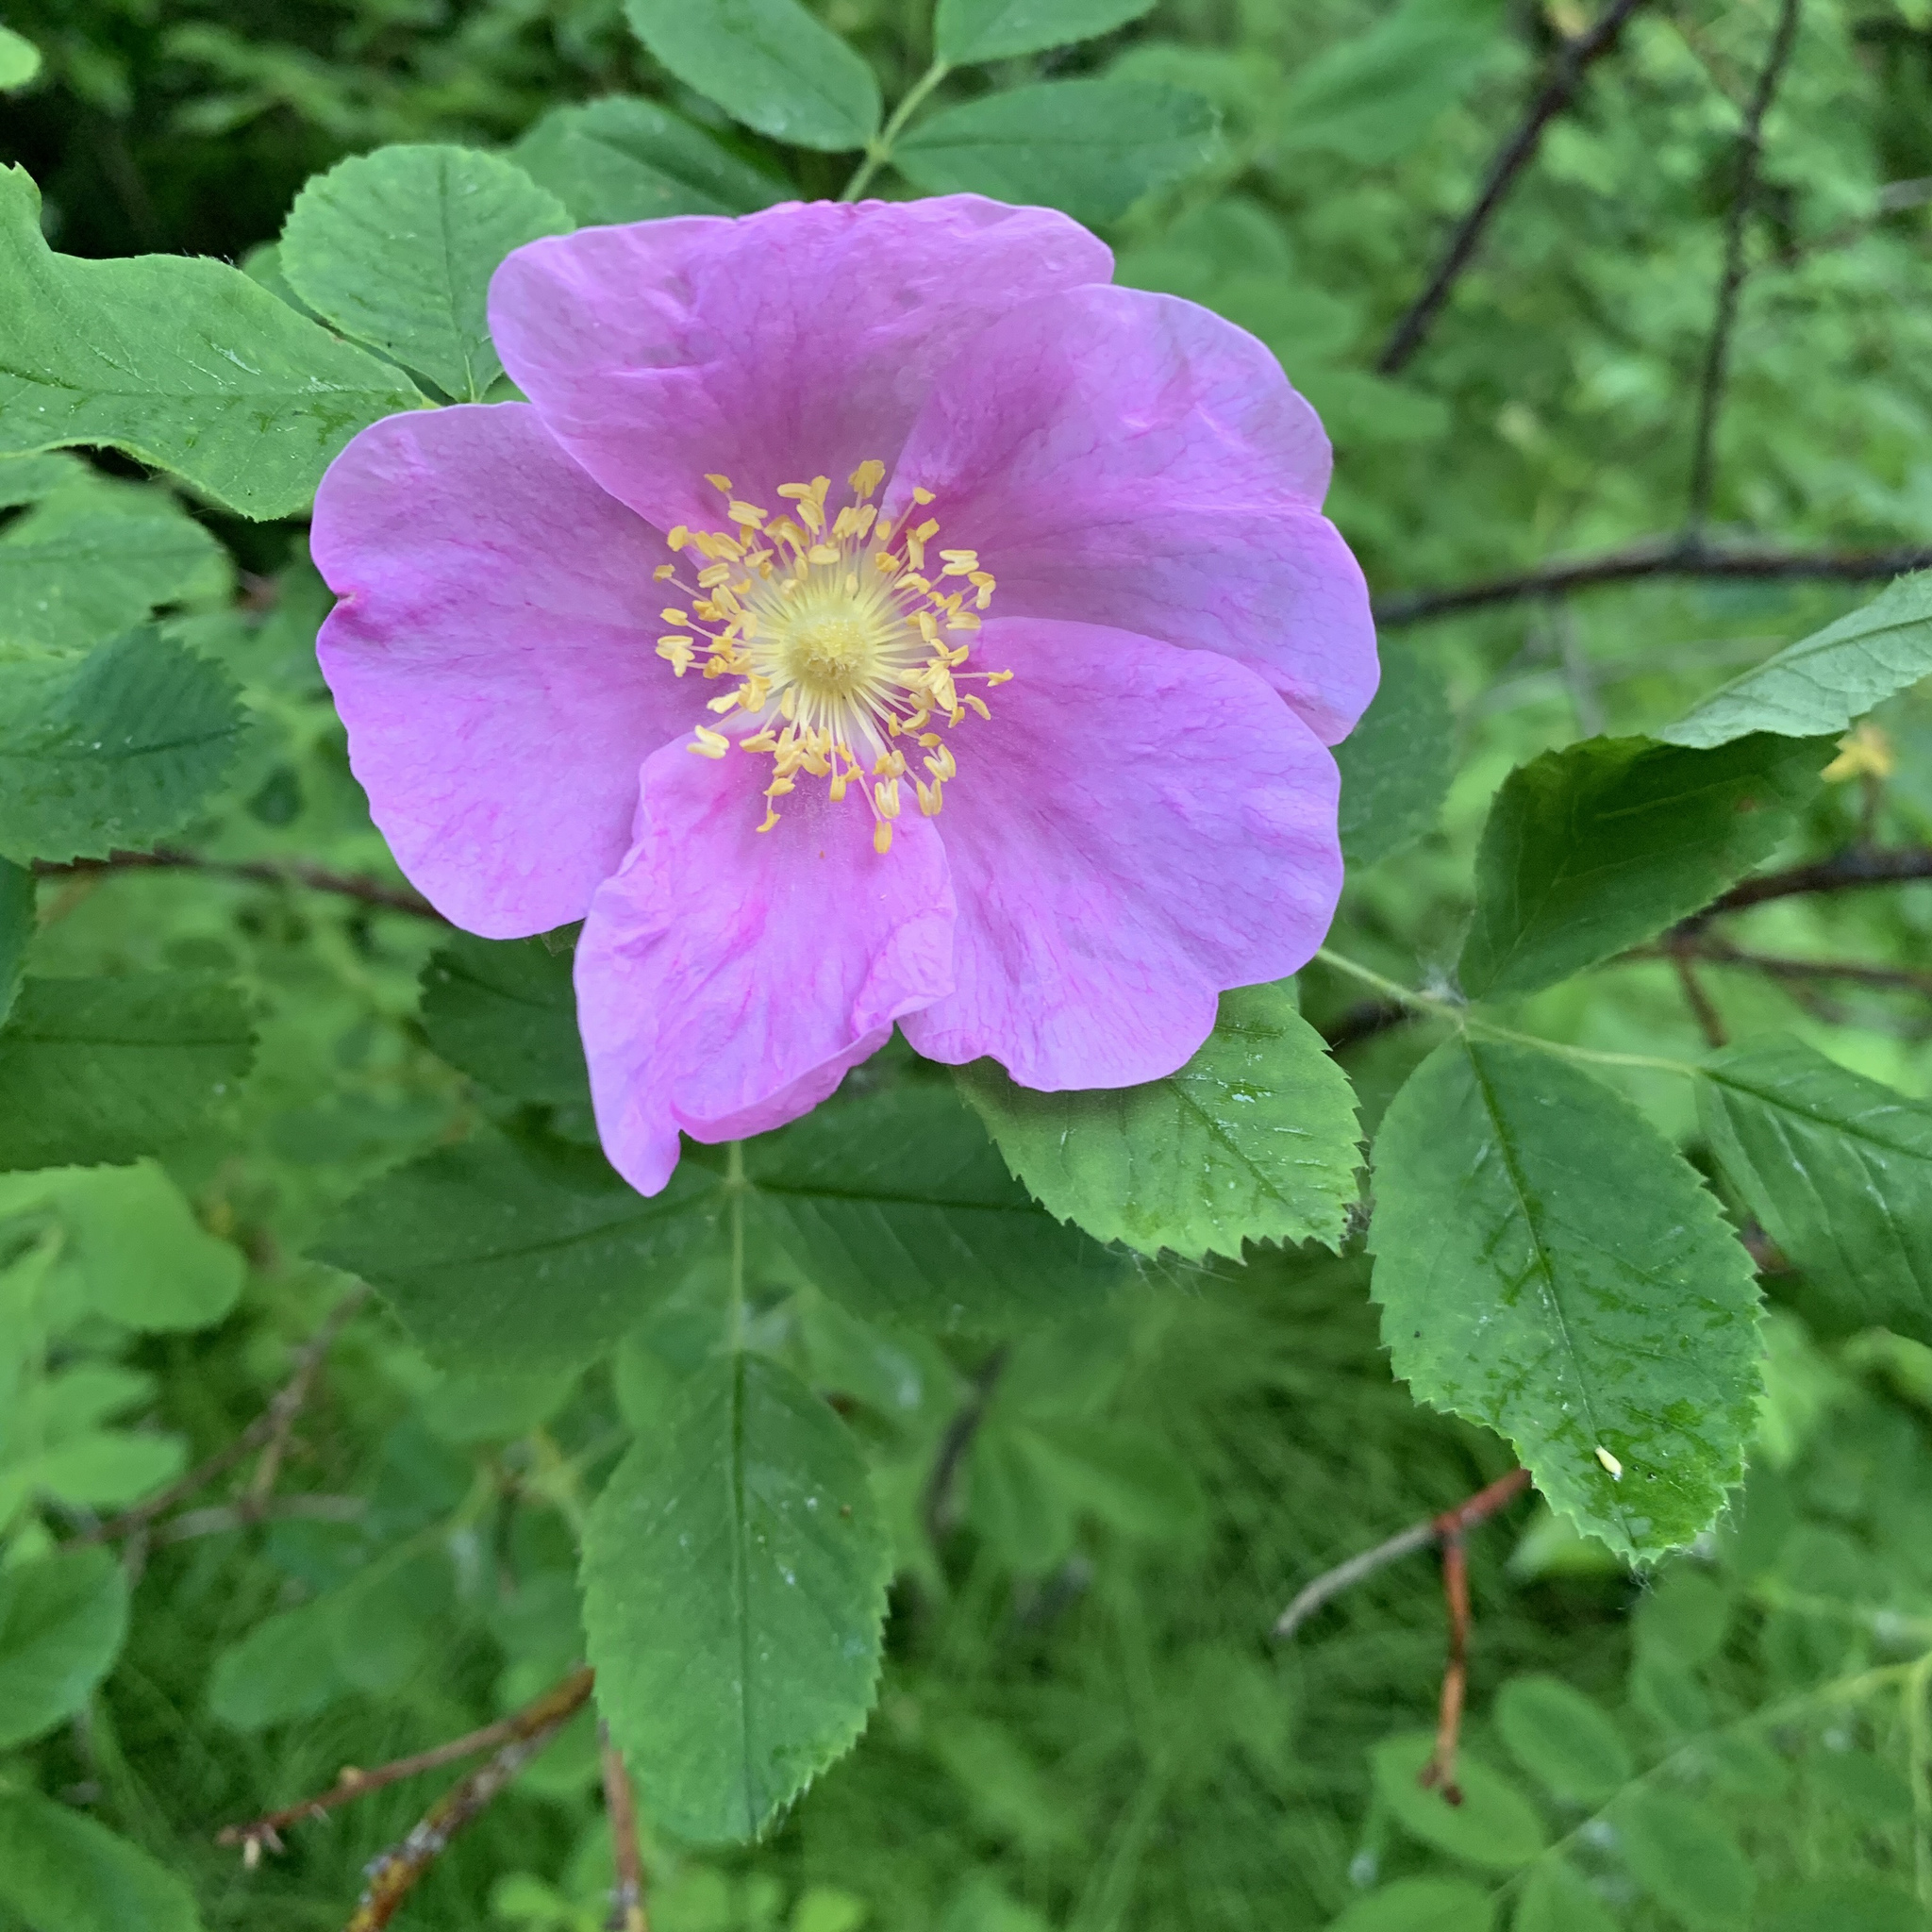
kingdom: Plantae
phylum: Tracheophyta
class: Magnoliopsida
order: Rosales
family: Rosaceae
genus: Rosa
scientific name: Rosa acicularis
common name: Prickly rose
